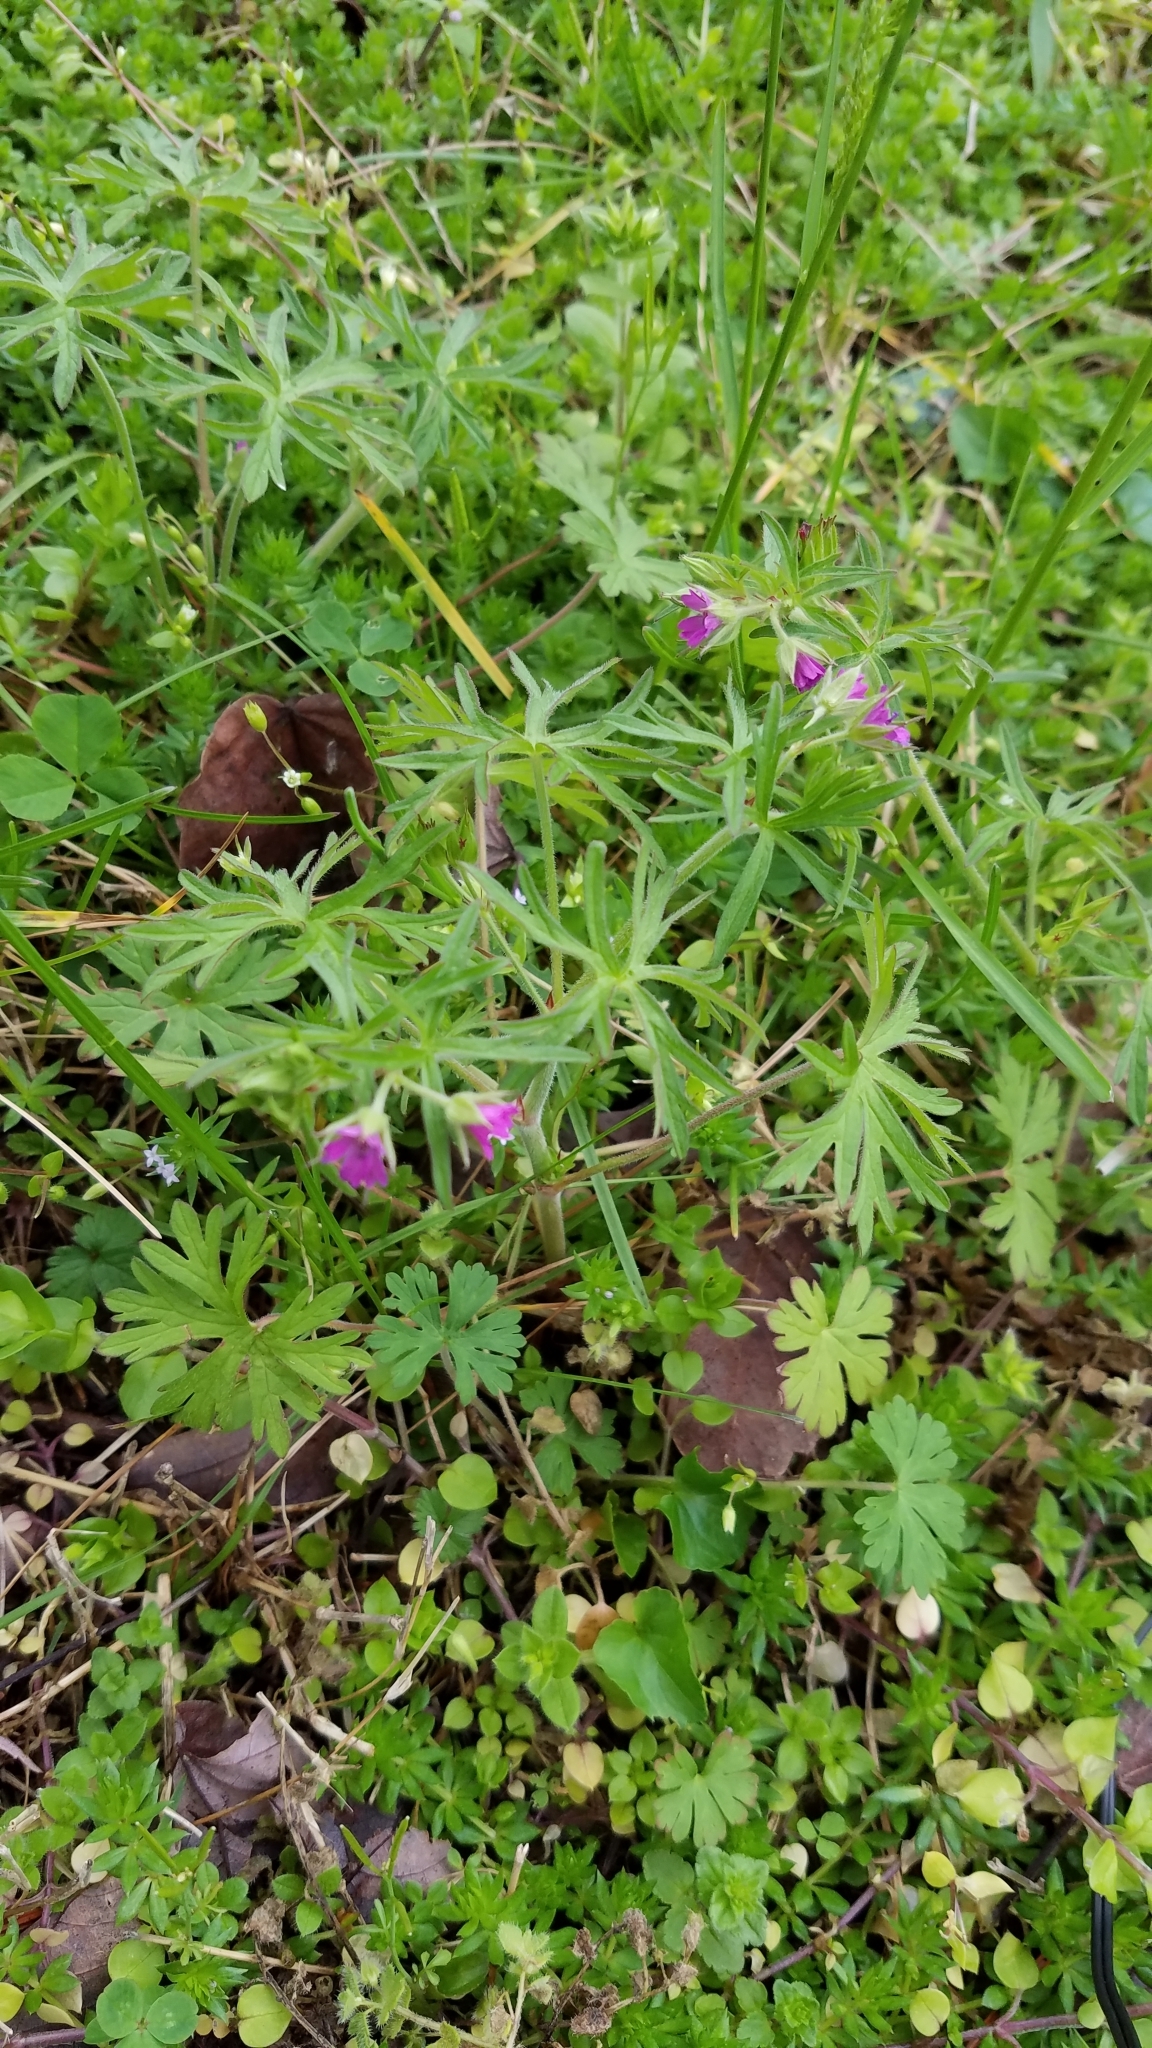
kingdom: Plantae
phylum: Tracheophyta
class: Magnoliopsida
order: Geraniales
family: Geraniaceae
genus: Geranium
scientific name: Geranium dissectum
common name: Cut-leaved crane's-bill
